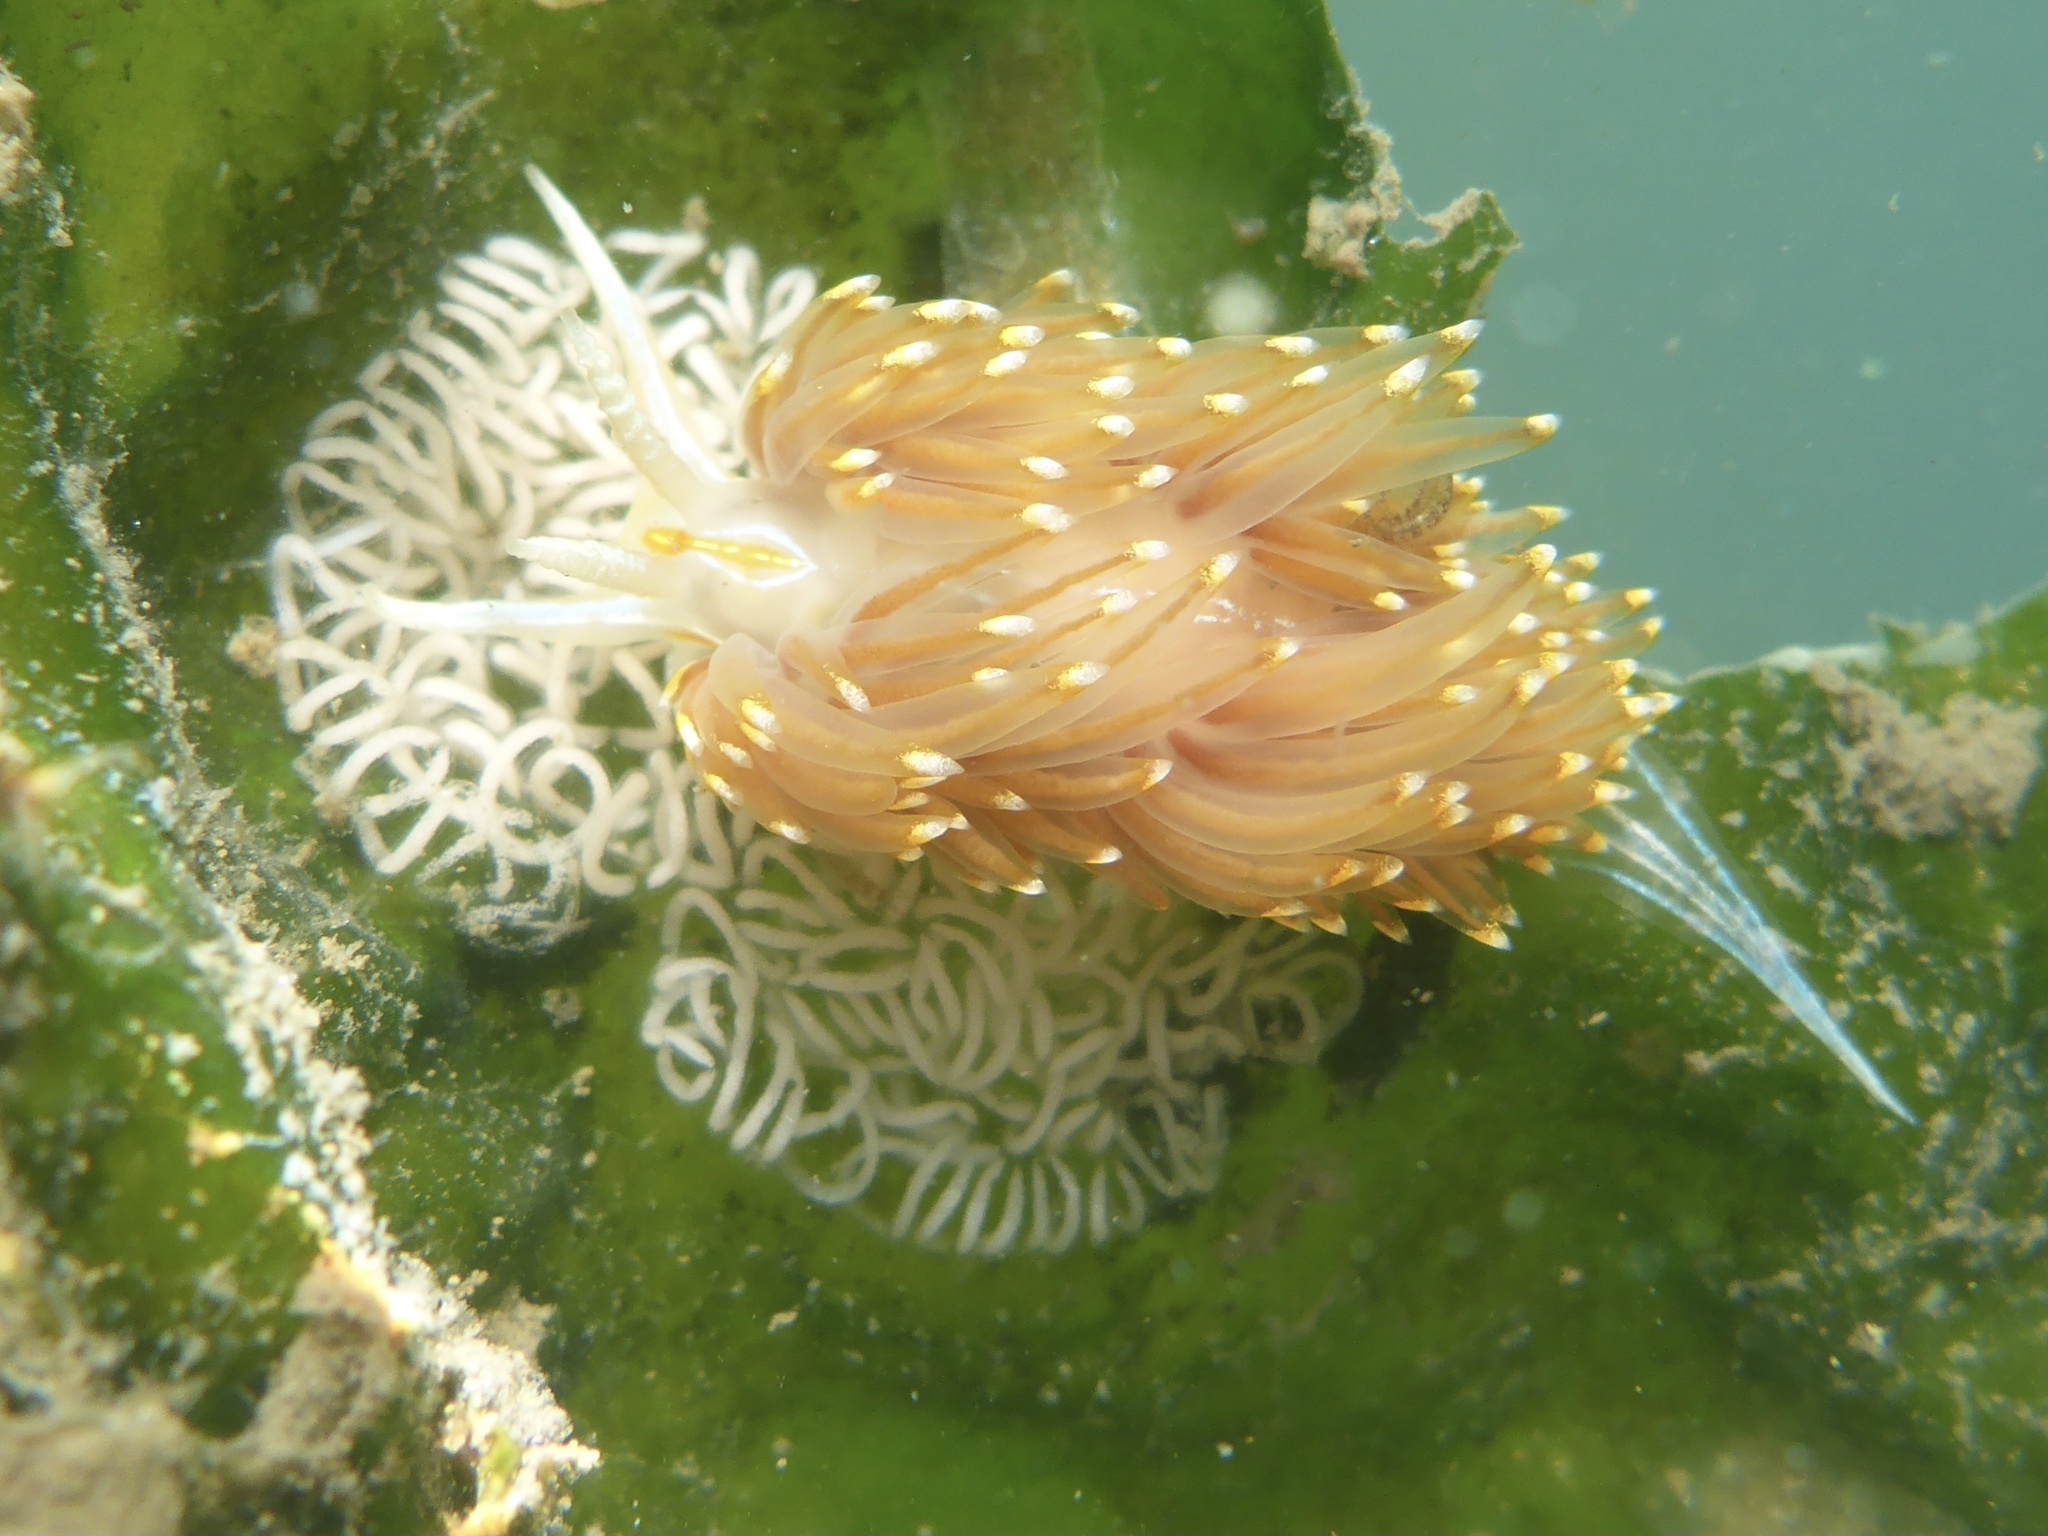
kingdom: Animalia
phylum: Mollusca
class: Gastropoda
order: Nudibranchia
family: Myrrhinidae
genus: Hermissenda
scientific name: Hermissenda opalescens
